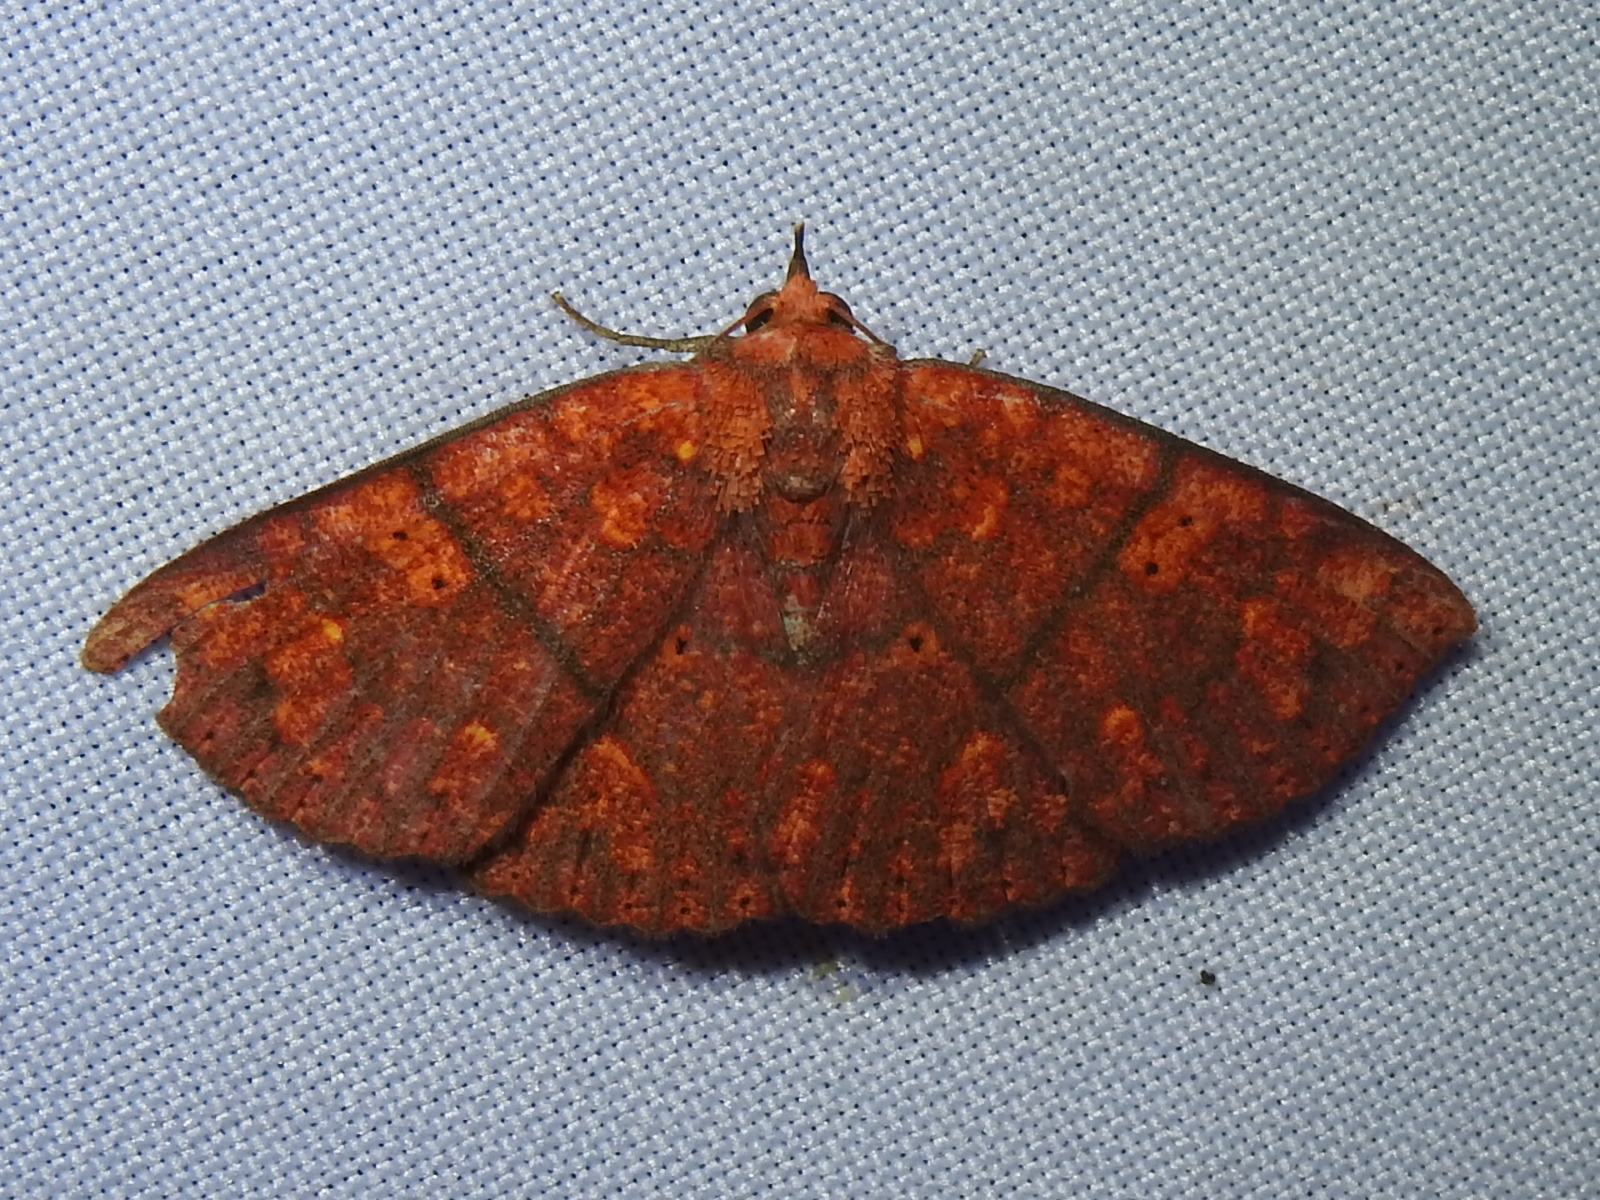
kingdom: Animalia
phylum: Arthropoda
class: Insecta
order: Lepidoptera
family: Erebidae
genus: Antiblemma
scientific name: Antiblemma agnita
